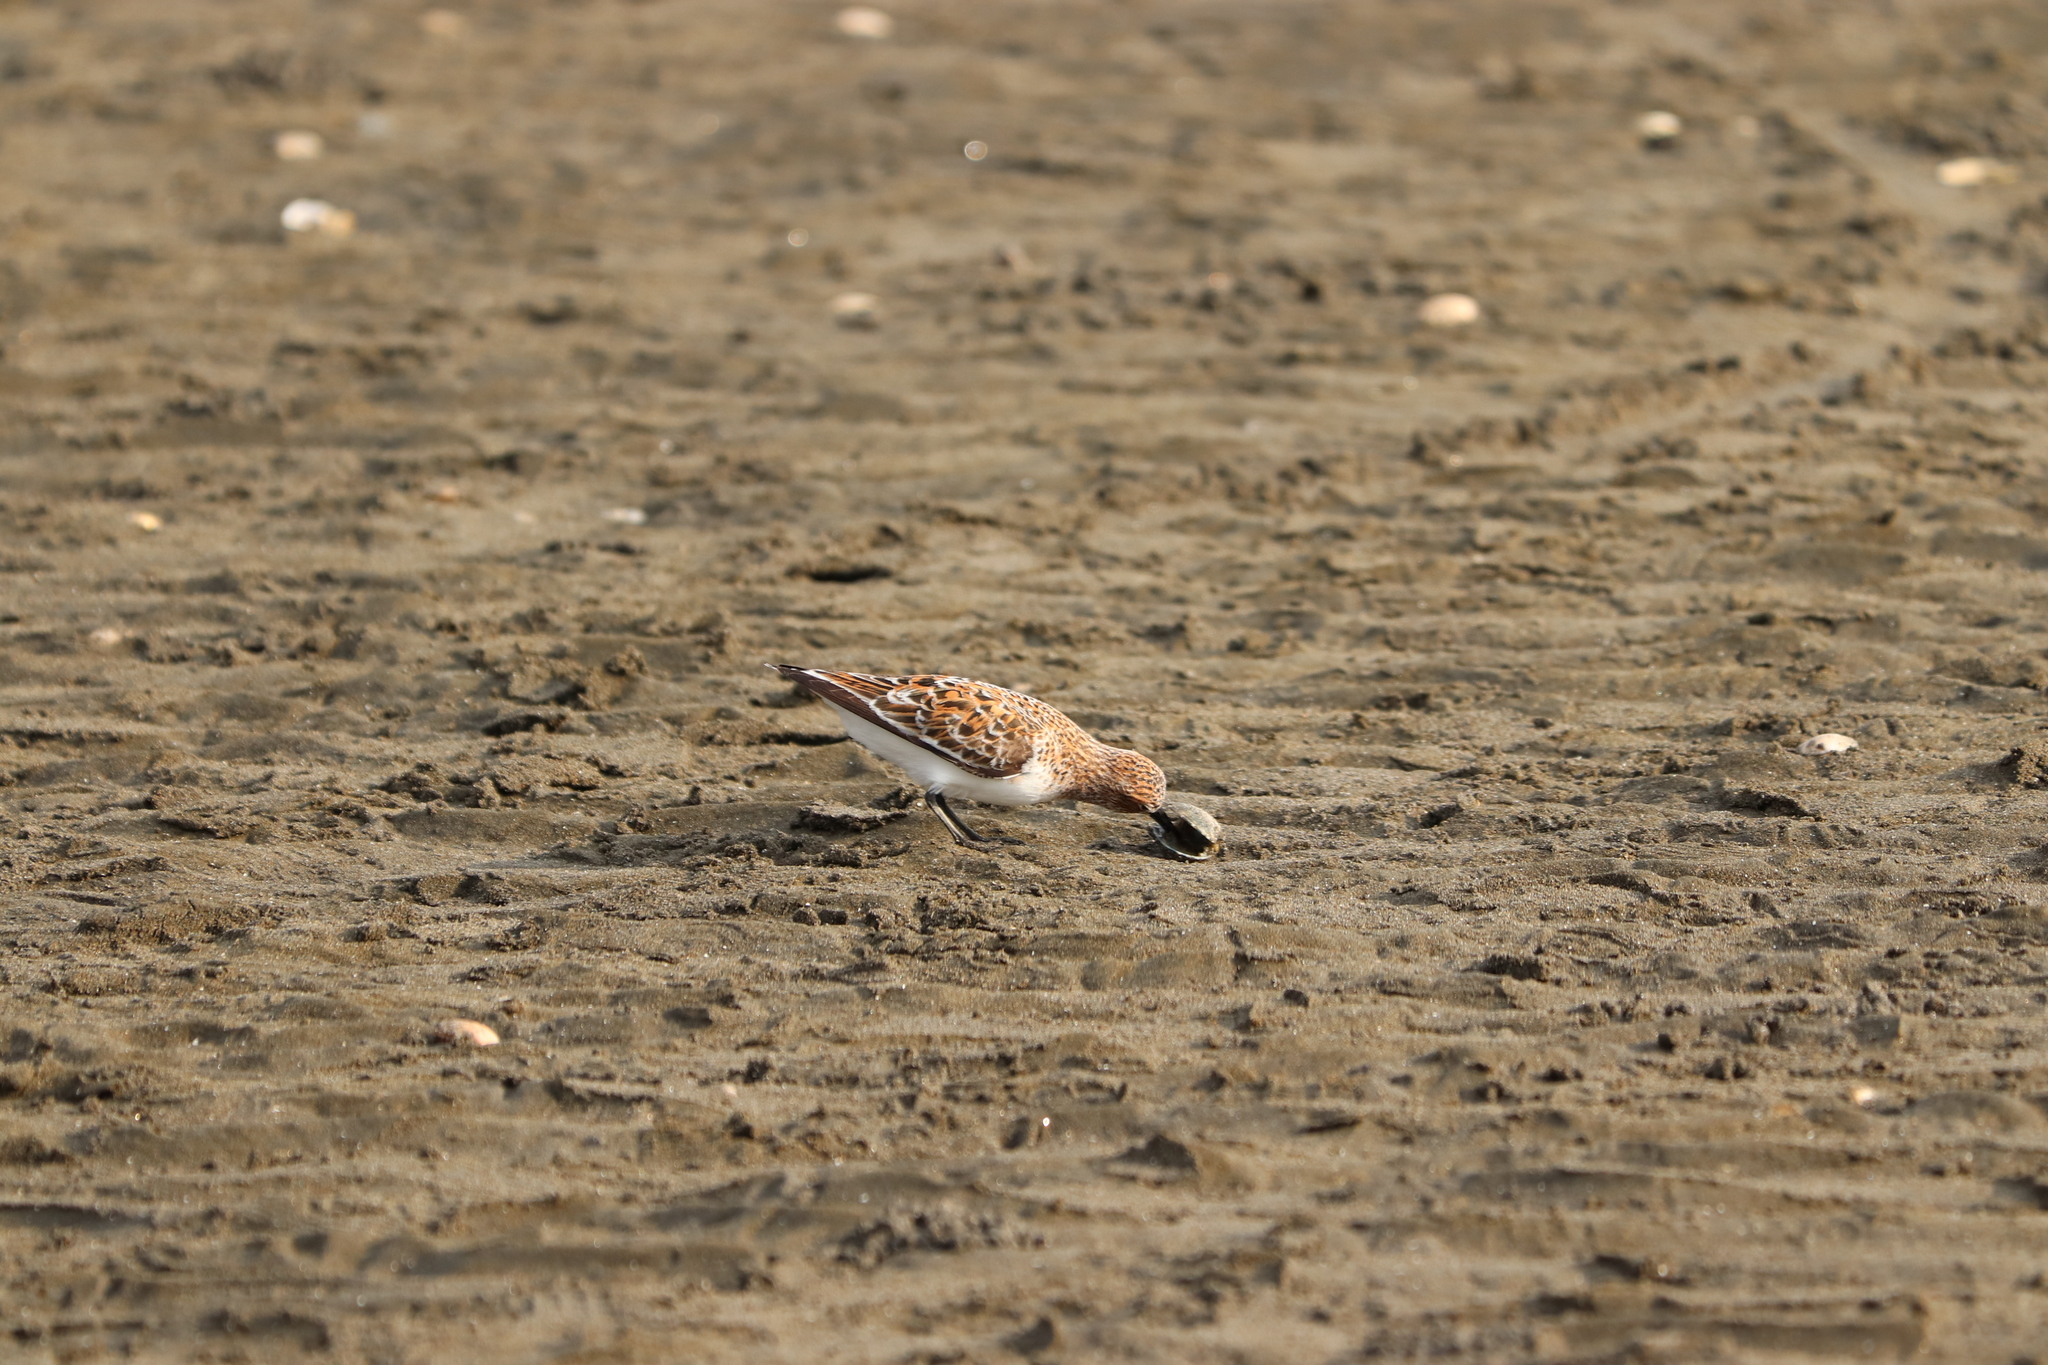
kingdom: Animalia
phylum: Chordata
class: Aves
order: Charadriiformes
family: Scolopacidae
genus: Calidris
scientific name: Calidris ruficollis
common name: Red-necked stint
